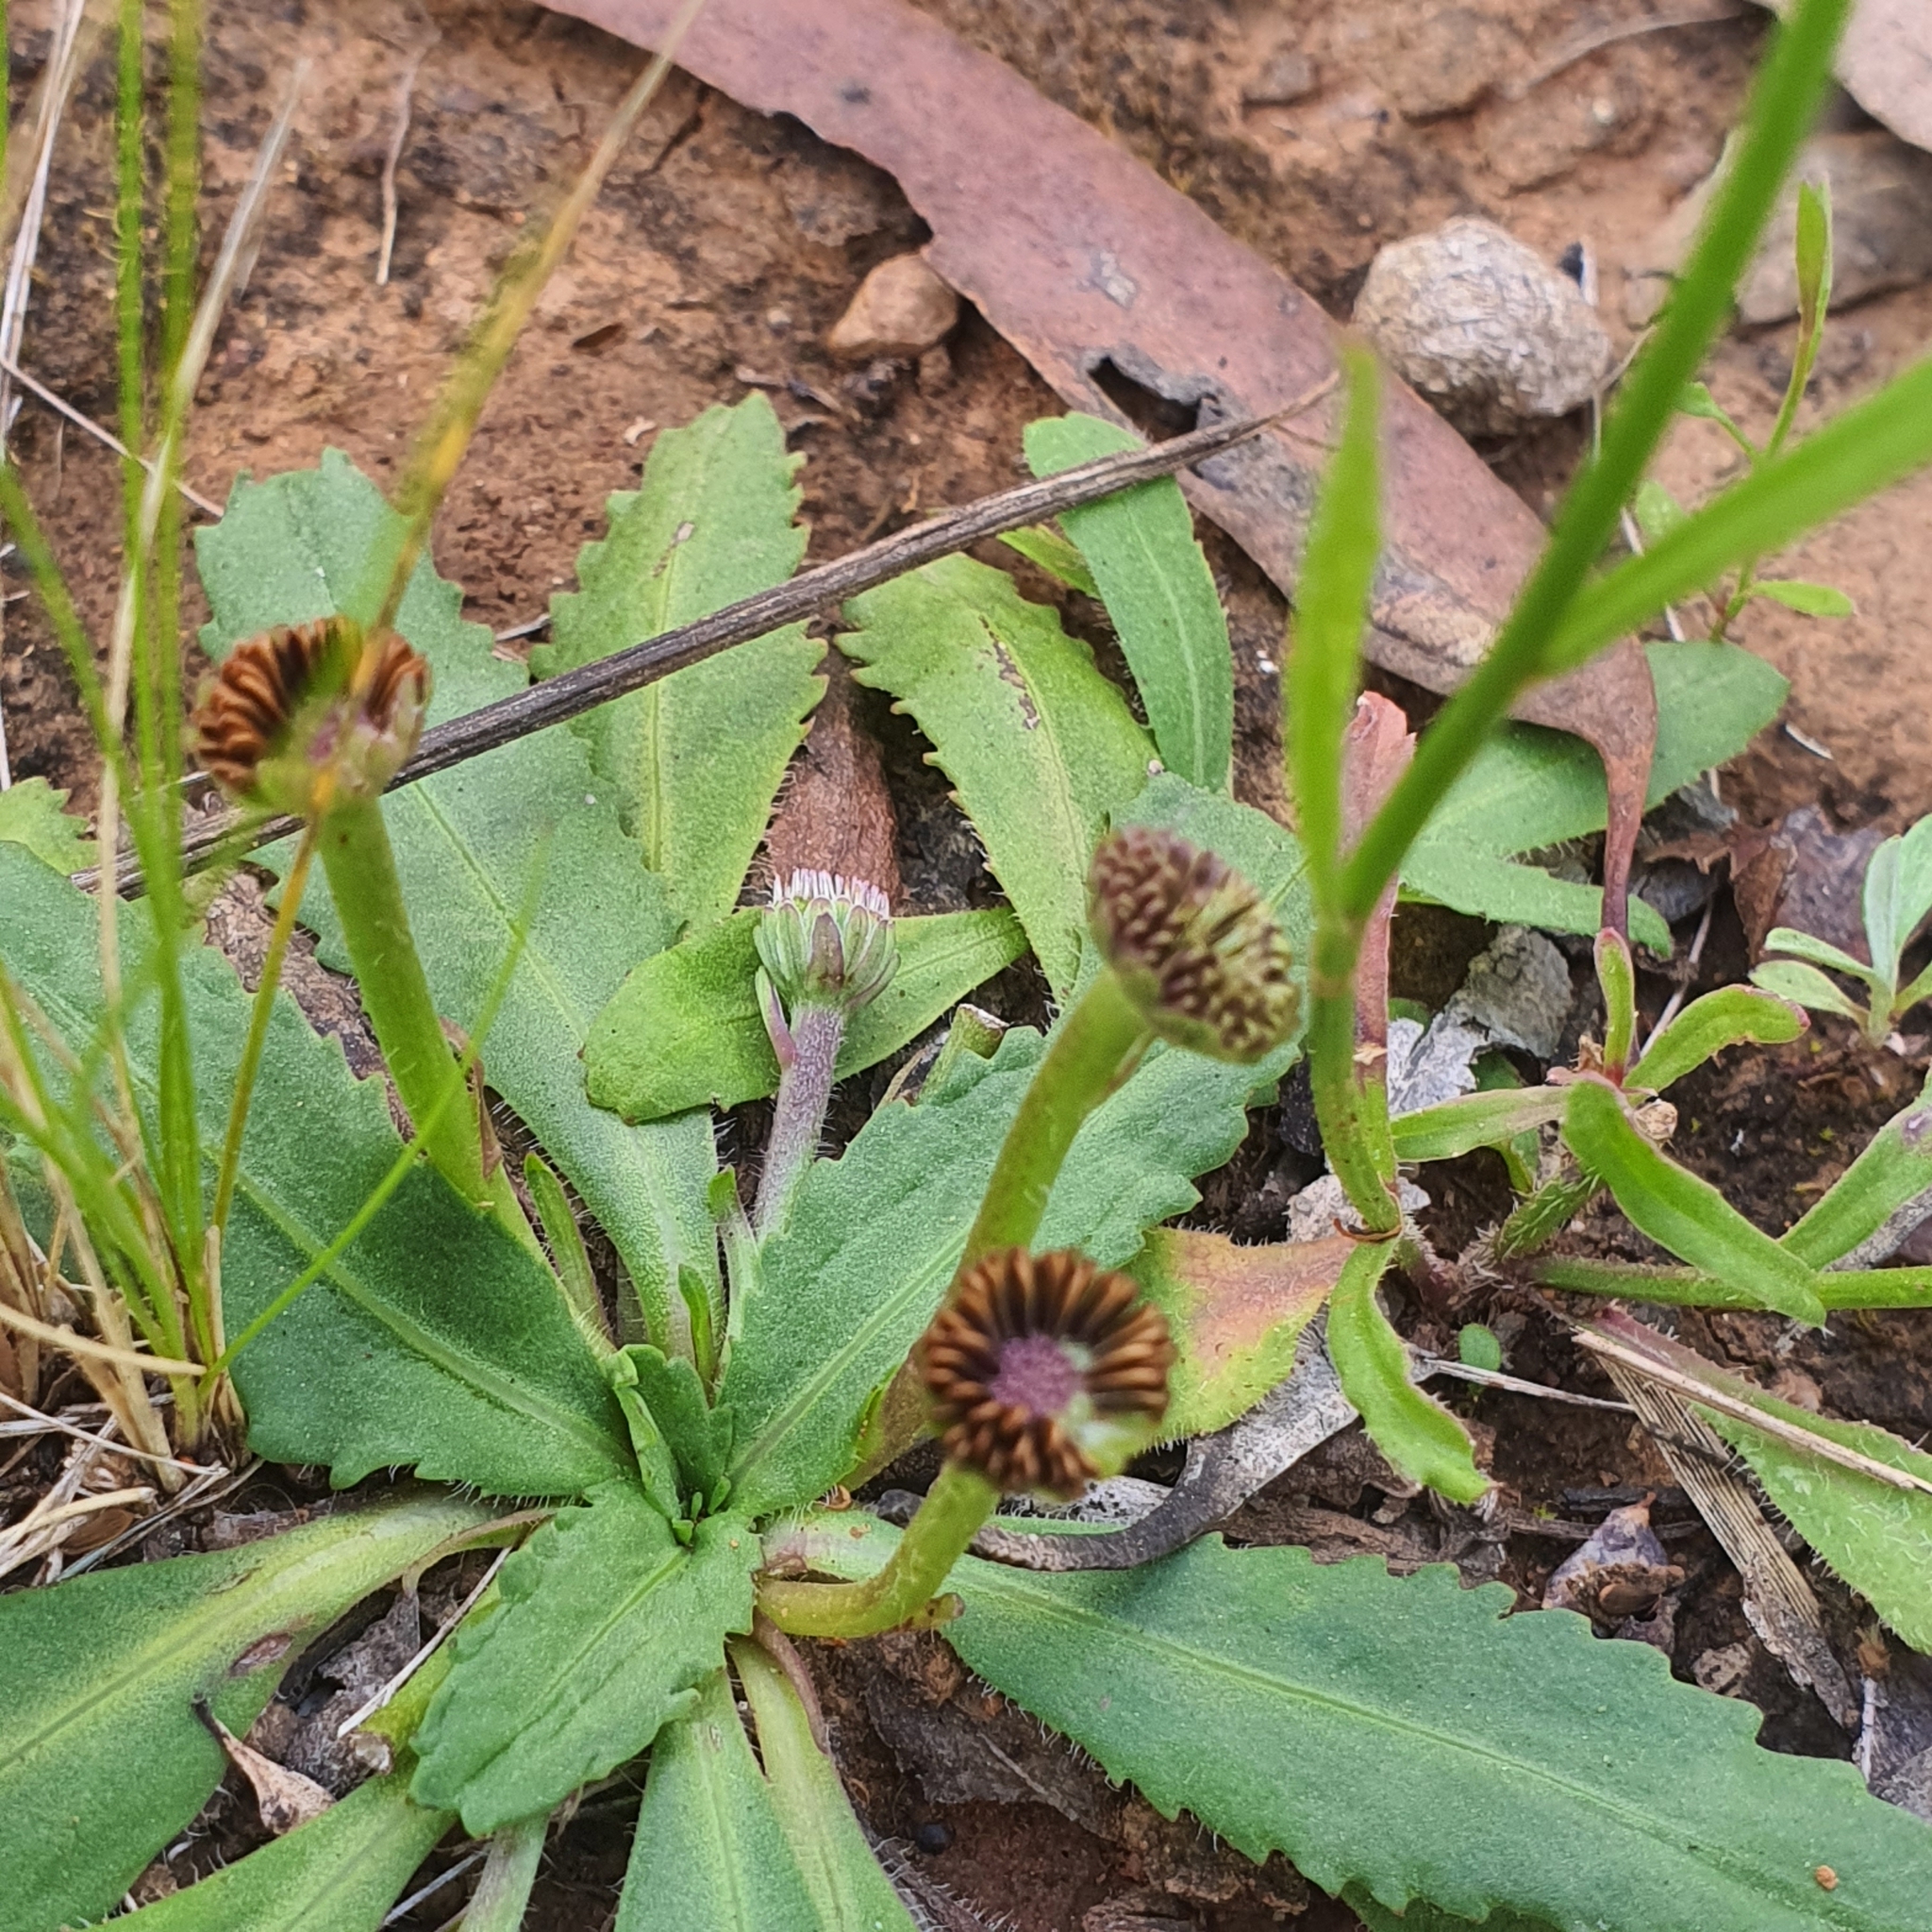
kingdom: Plantae
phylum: Tracheophyta
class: Magnoliopsida
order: Asterales
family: Asteraceae
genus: Solenogyne
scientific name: Solenogyne dominii
